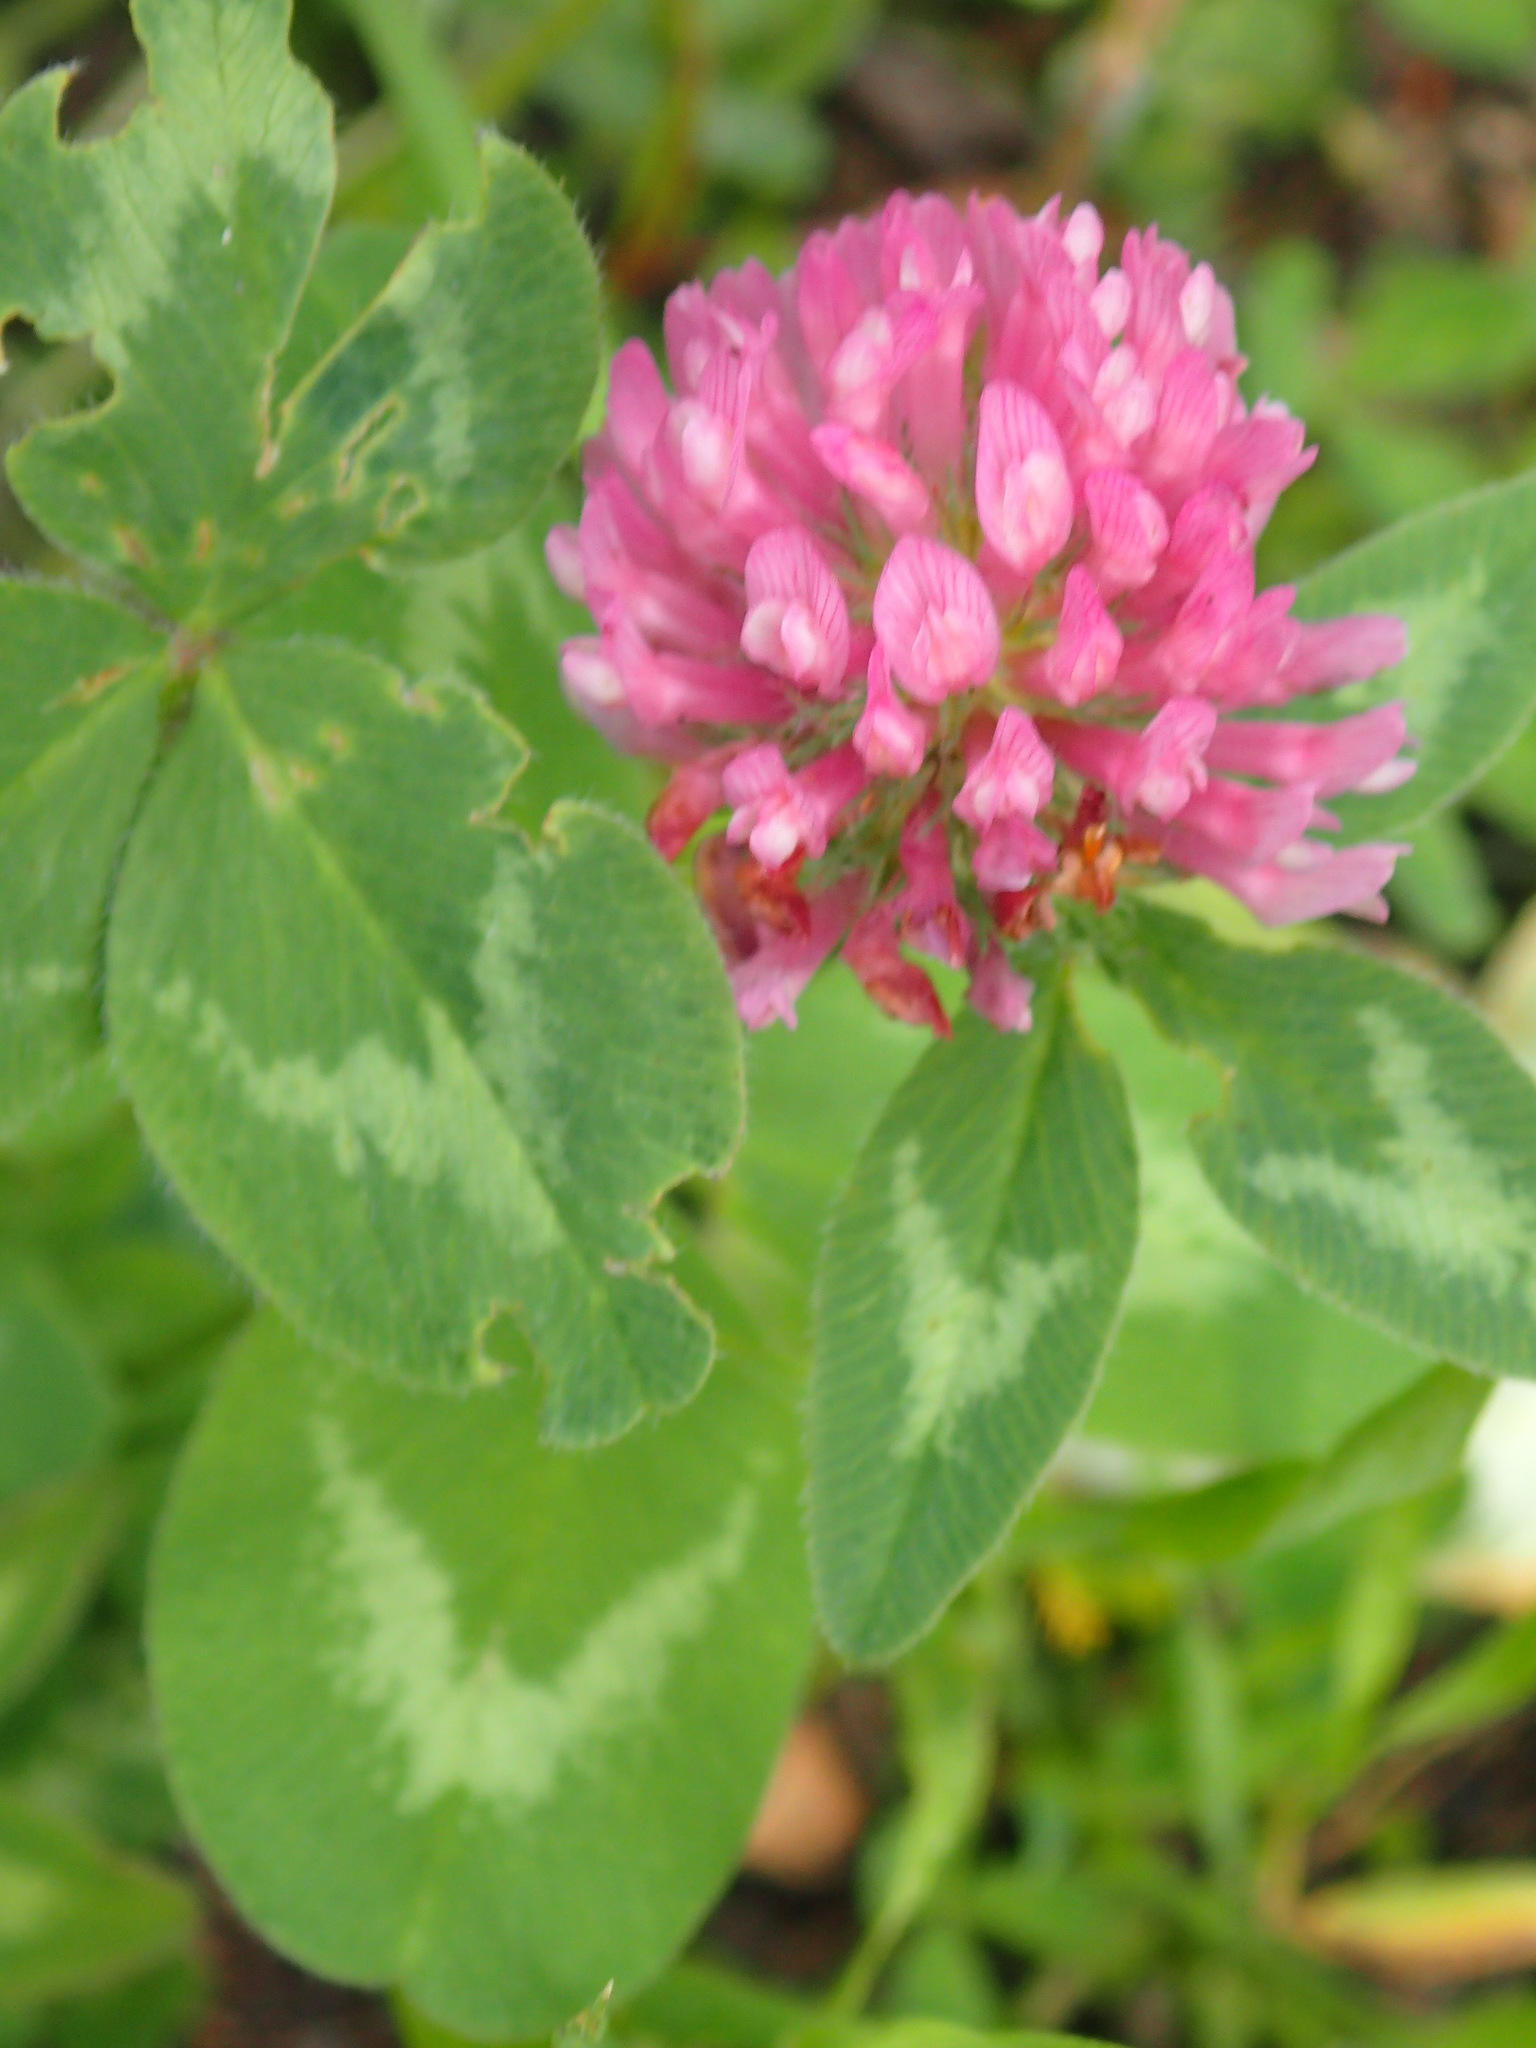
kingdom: Plantae
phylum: Tracheophyta
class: Magnoliopsida
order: Fabales
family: Fabaceae
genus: Trifolium
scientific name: Trifolium pratense
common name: Red clover
